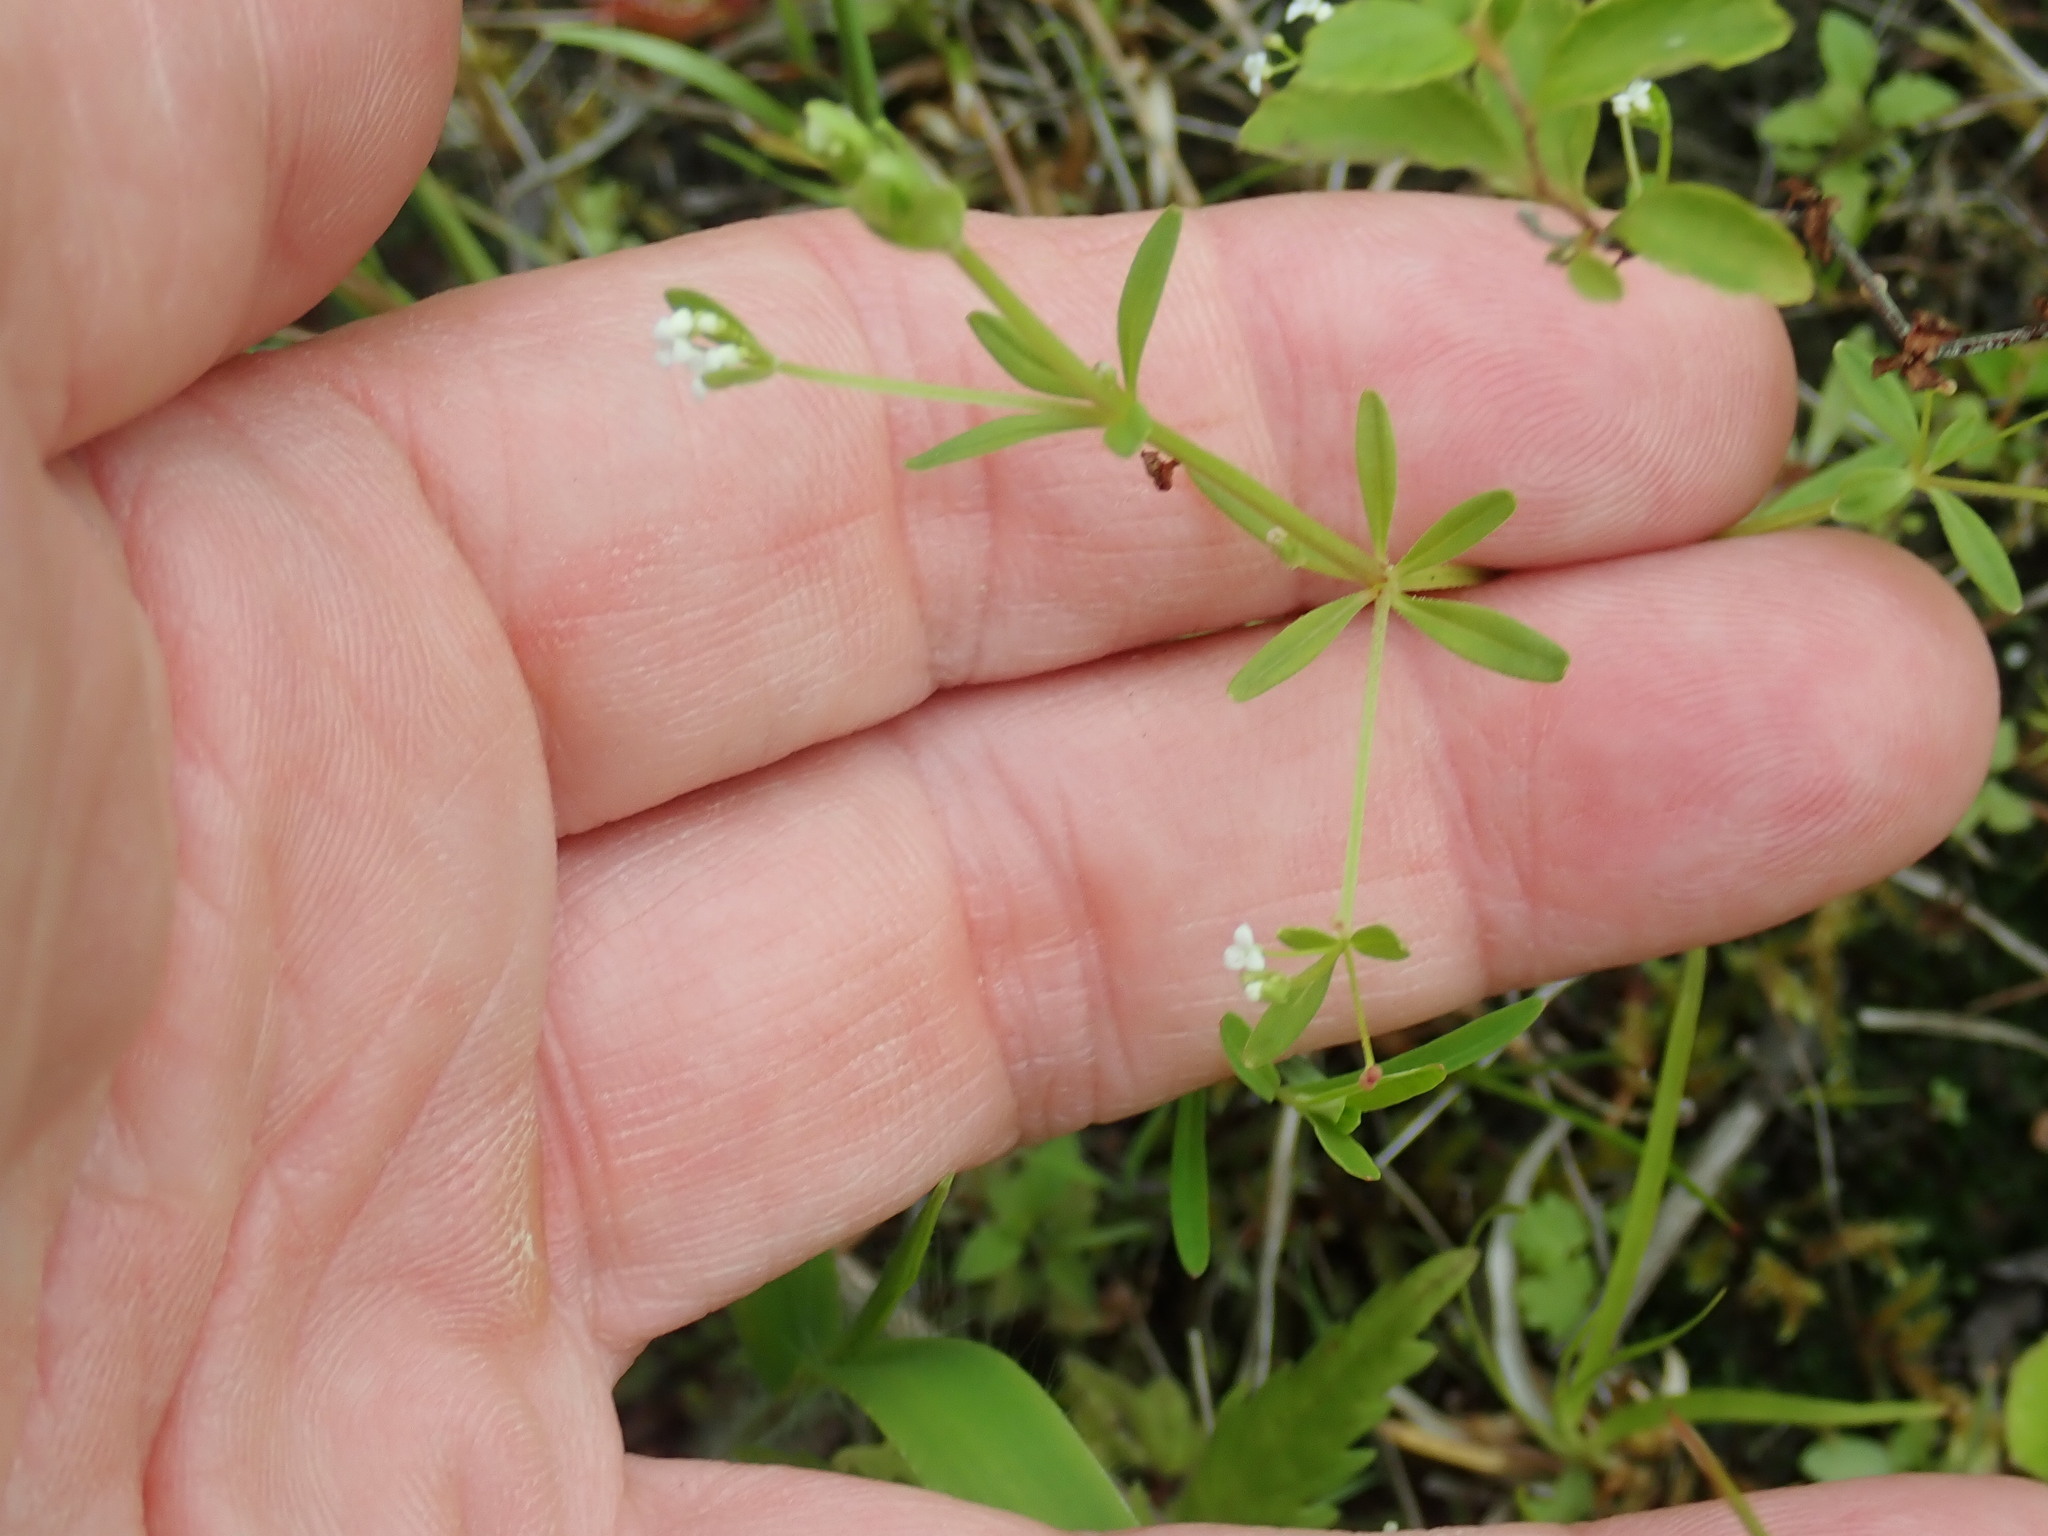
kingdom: Plantae
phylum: Tracheophyta
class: Magnoliopsida
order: Gentianales
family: Rubiaceae
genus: Galium
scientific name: Galium palustre
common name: Common marsh-bedstraw
